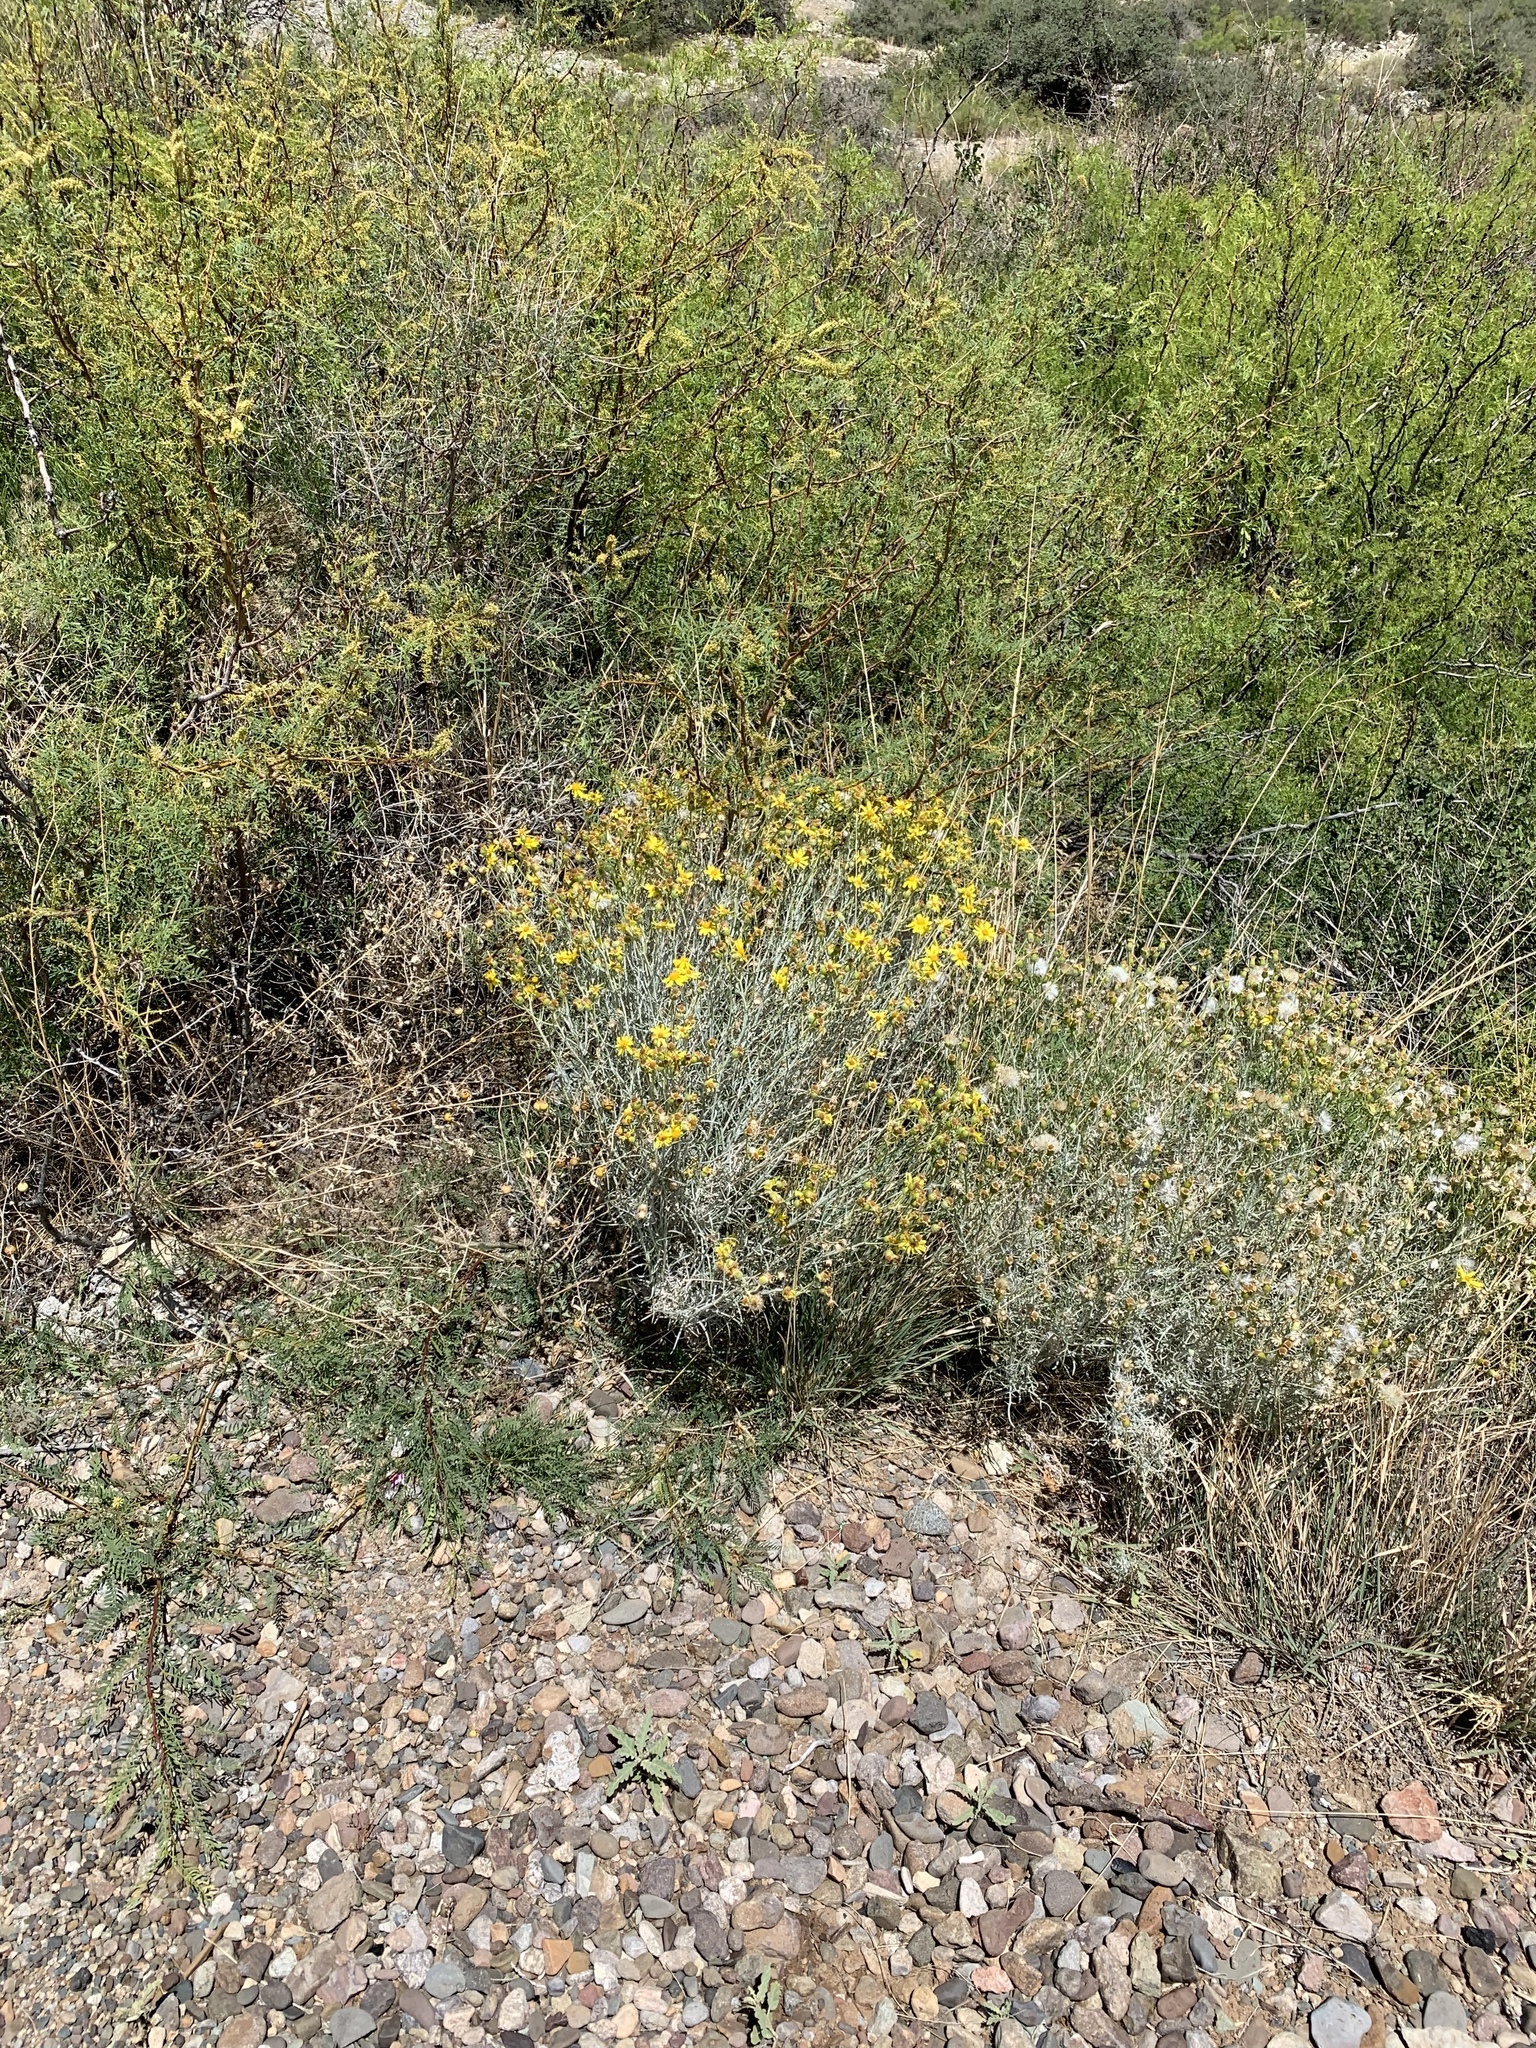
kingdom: Plantae
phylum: Tracheophyta
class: Magnoliopsida
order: Asterales
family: Asteraceae
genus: Senecio
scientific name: Senecio flaccidus
